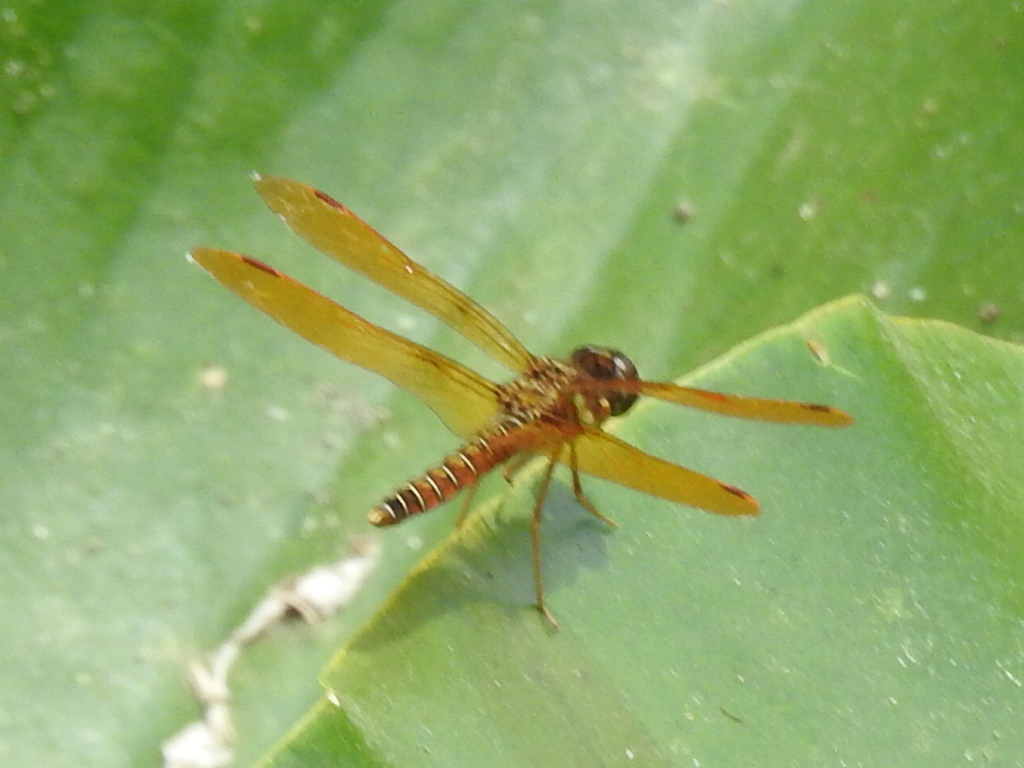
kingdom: Animalia
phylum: Arthropoda
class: Insecta
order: Odonata
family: Libellulidae
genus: Perithemis
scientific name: Perithemis tenera
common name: Eastern amberwing
